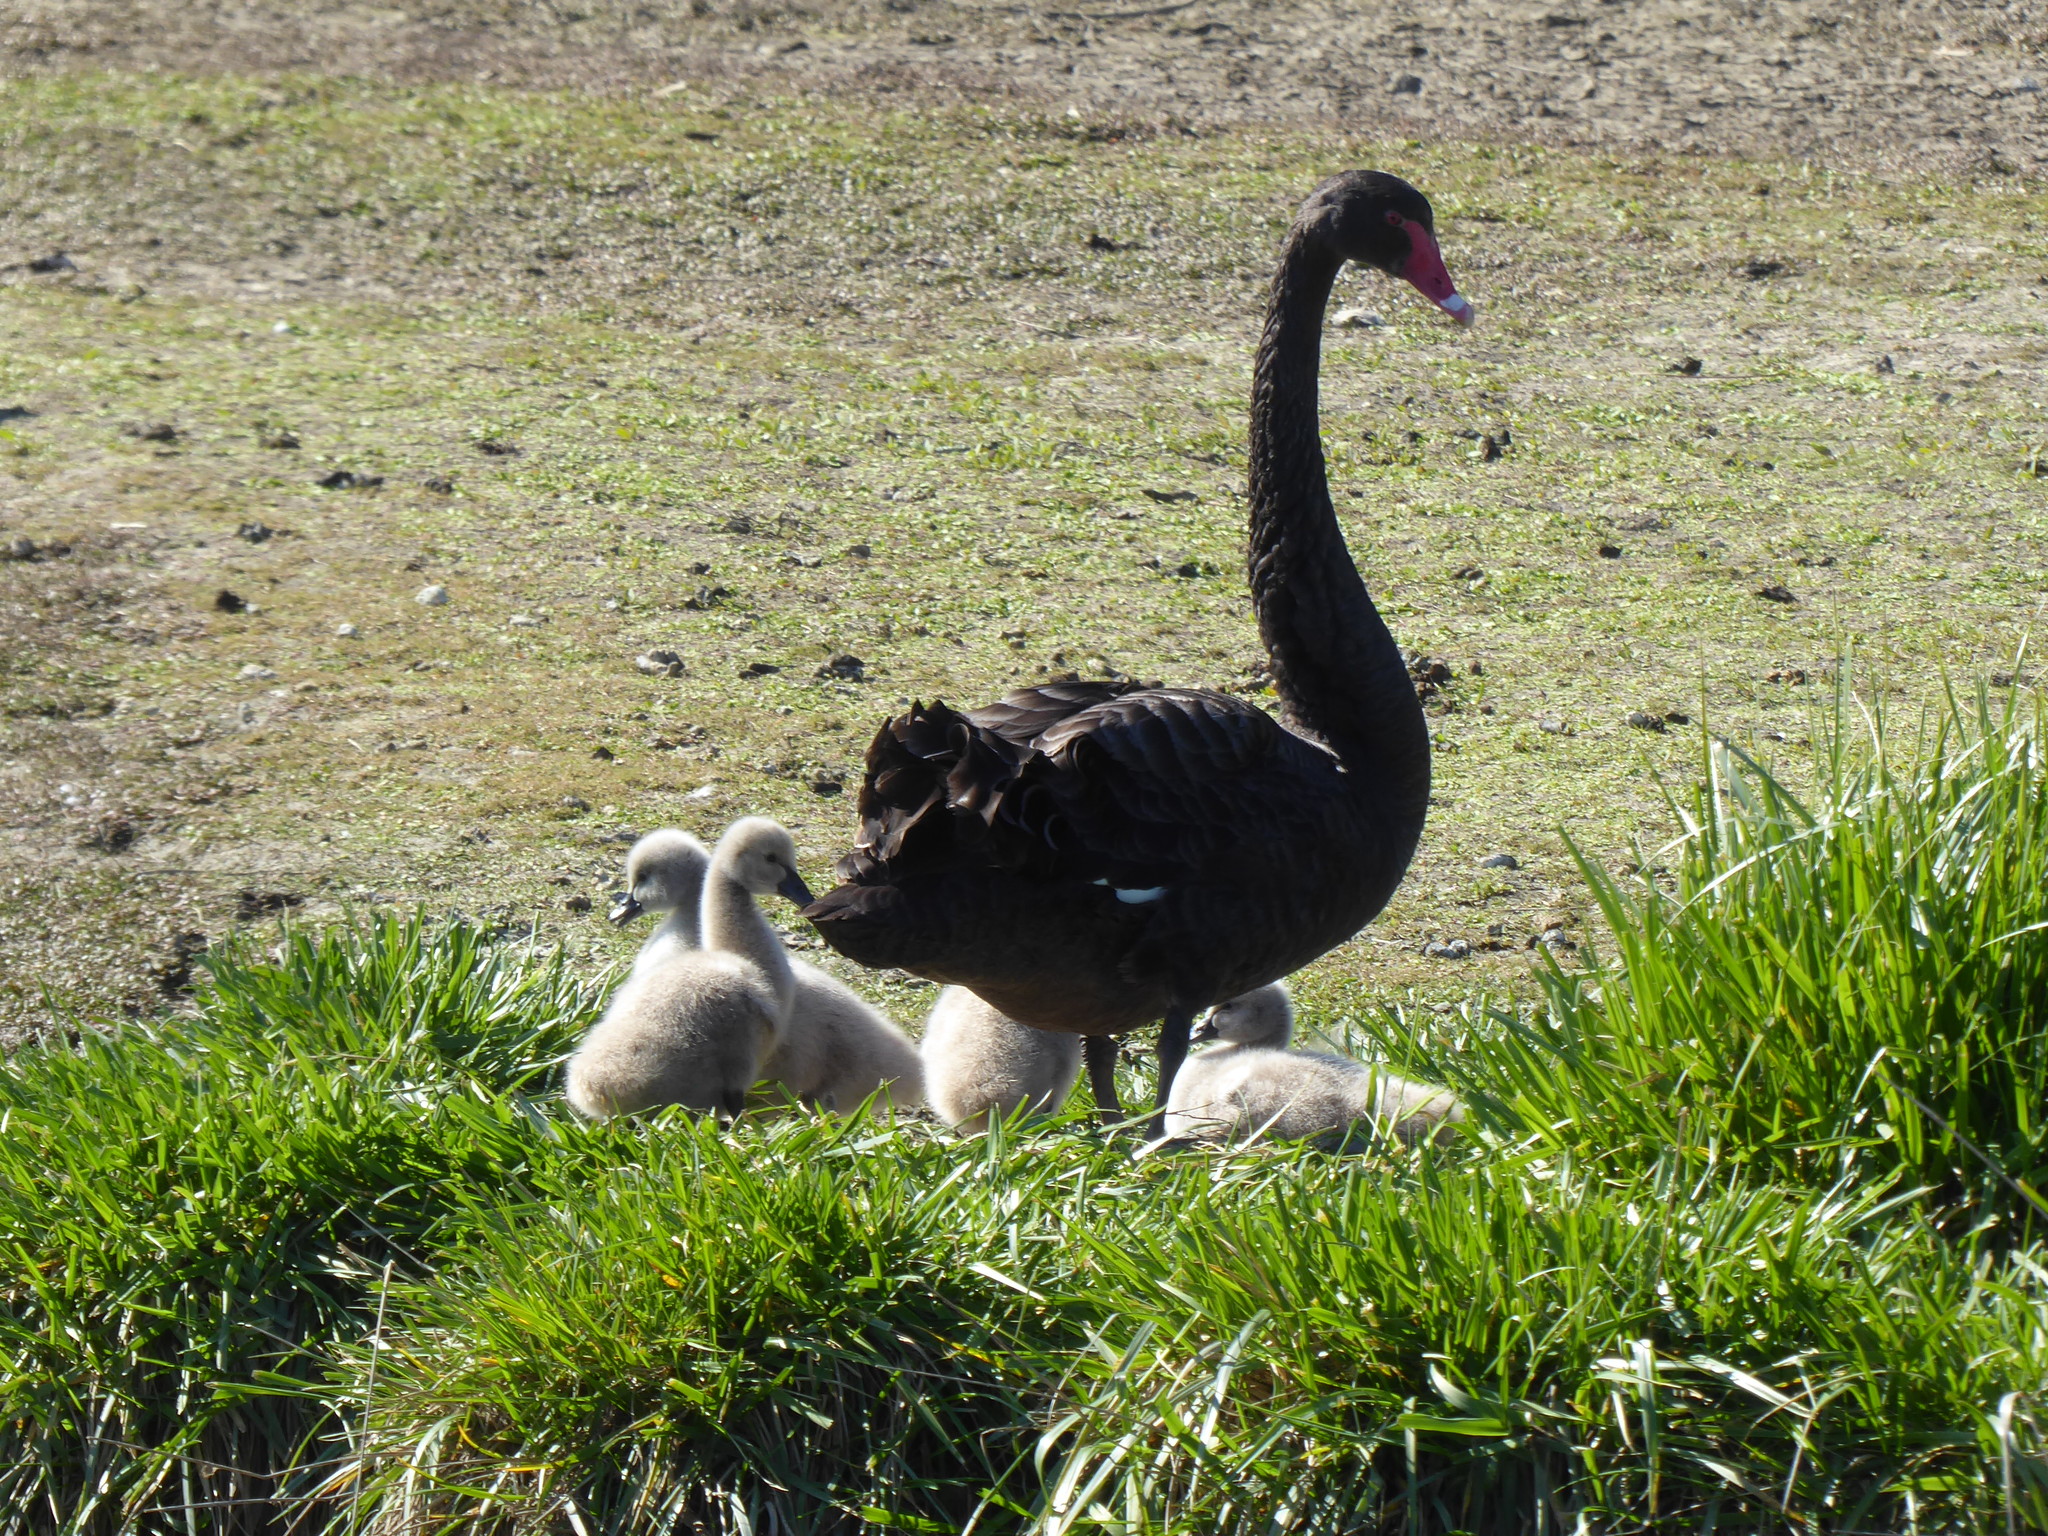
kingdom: Animalia
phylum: Chordata
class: Aves
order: Anseriformes
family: Anatidae
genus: Cygnus
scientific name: Cygnus atratus
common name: Black swan
